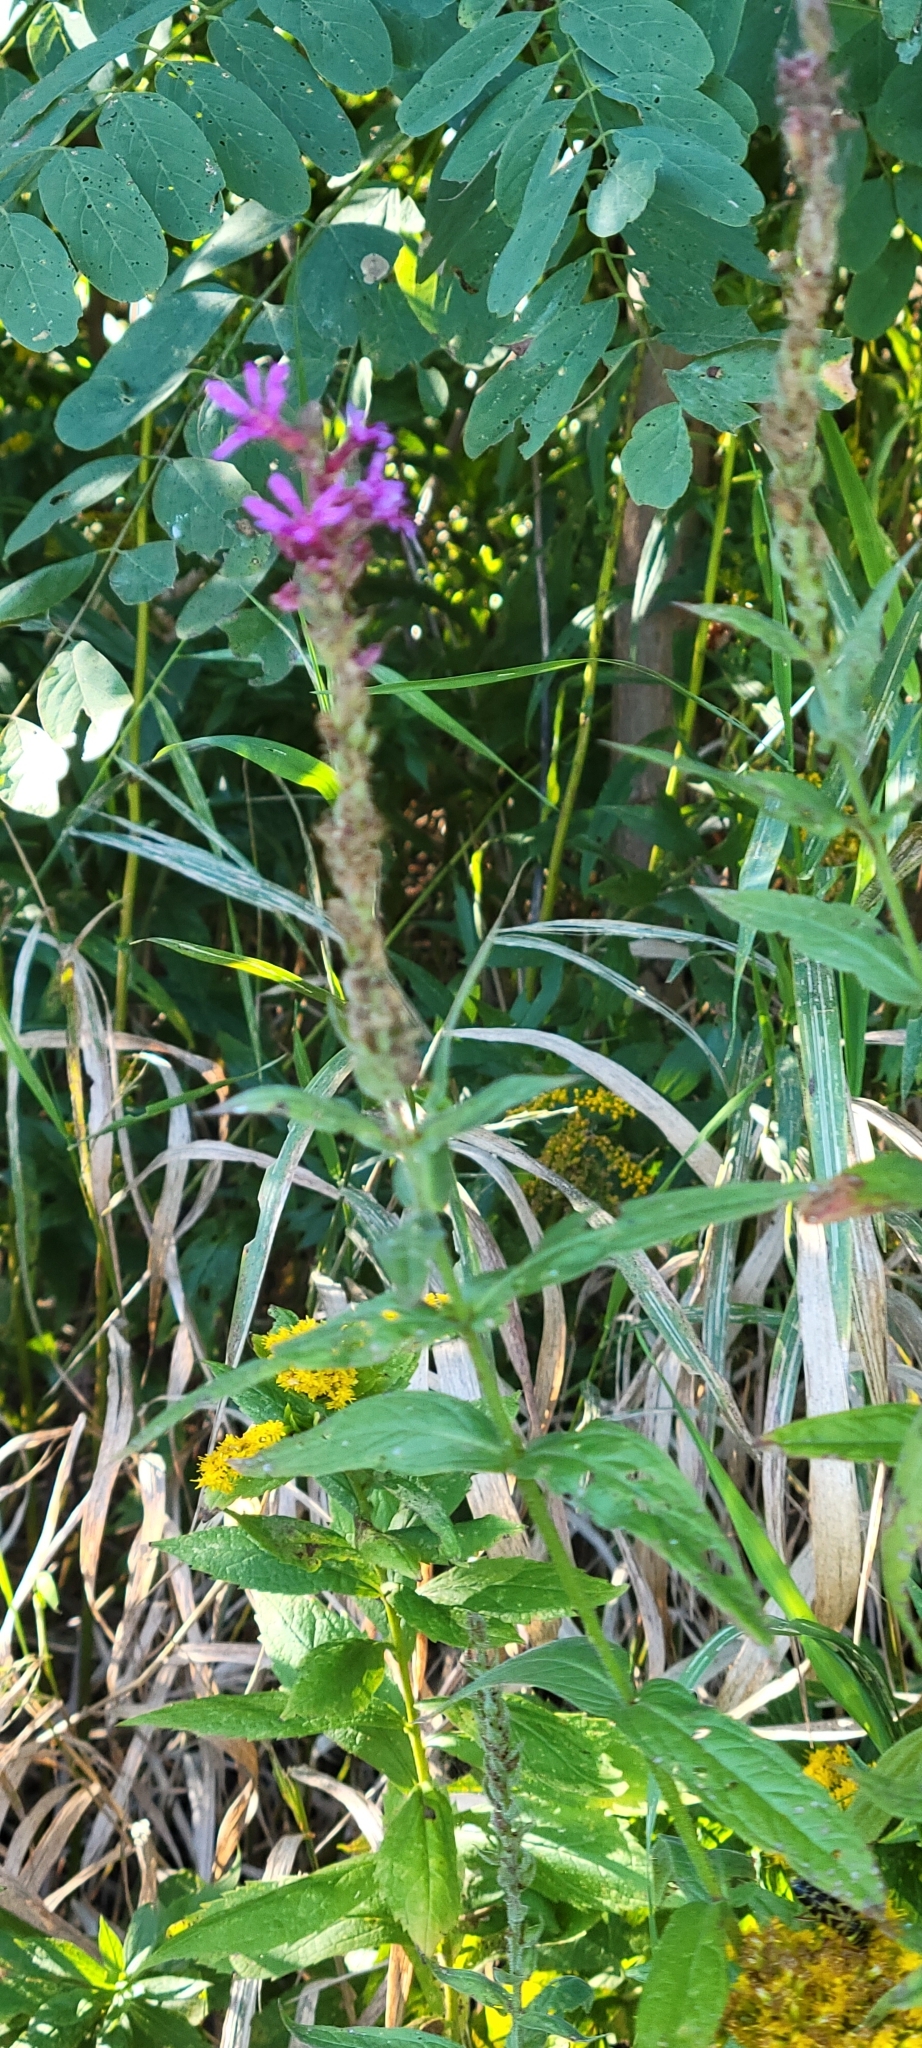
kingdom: Plantae
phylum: Tracheophyta
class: Magnoliopsida
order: Myrtales
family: Lythraceae
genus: Lythrum
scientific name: Lythrum salicaria
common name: Purple loosestrife
